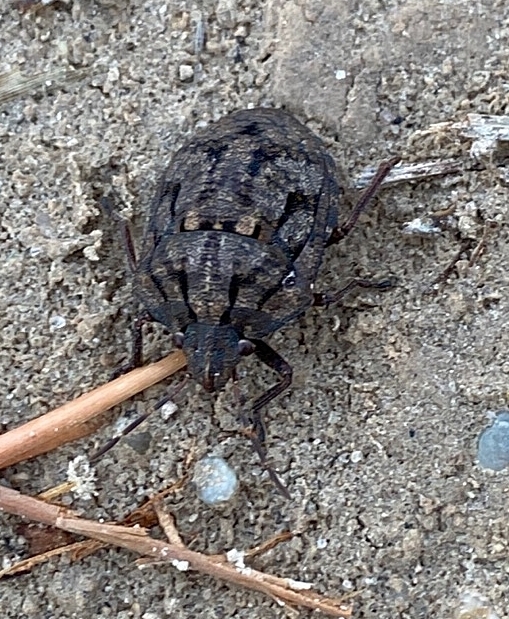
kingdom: Animalia
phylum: Arthropoda
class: Insecta
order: Hemiptera
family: Scutelleridae
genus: Tetyra
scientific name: Tetyra bipunctata
